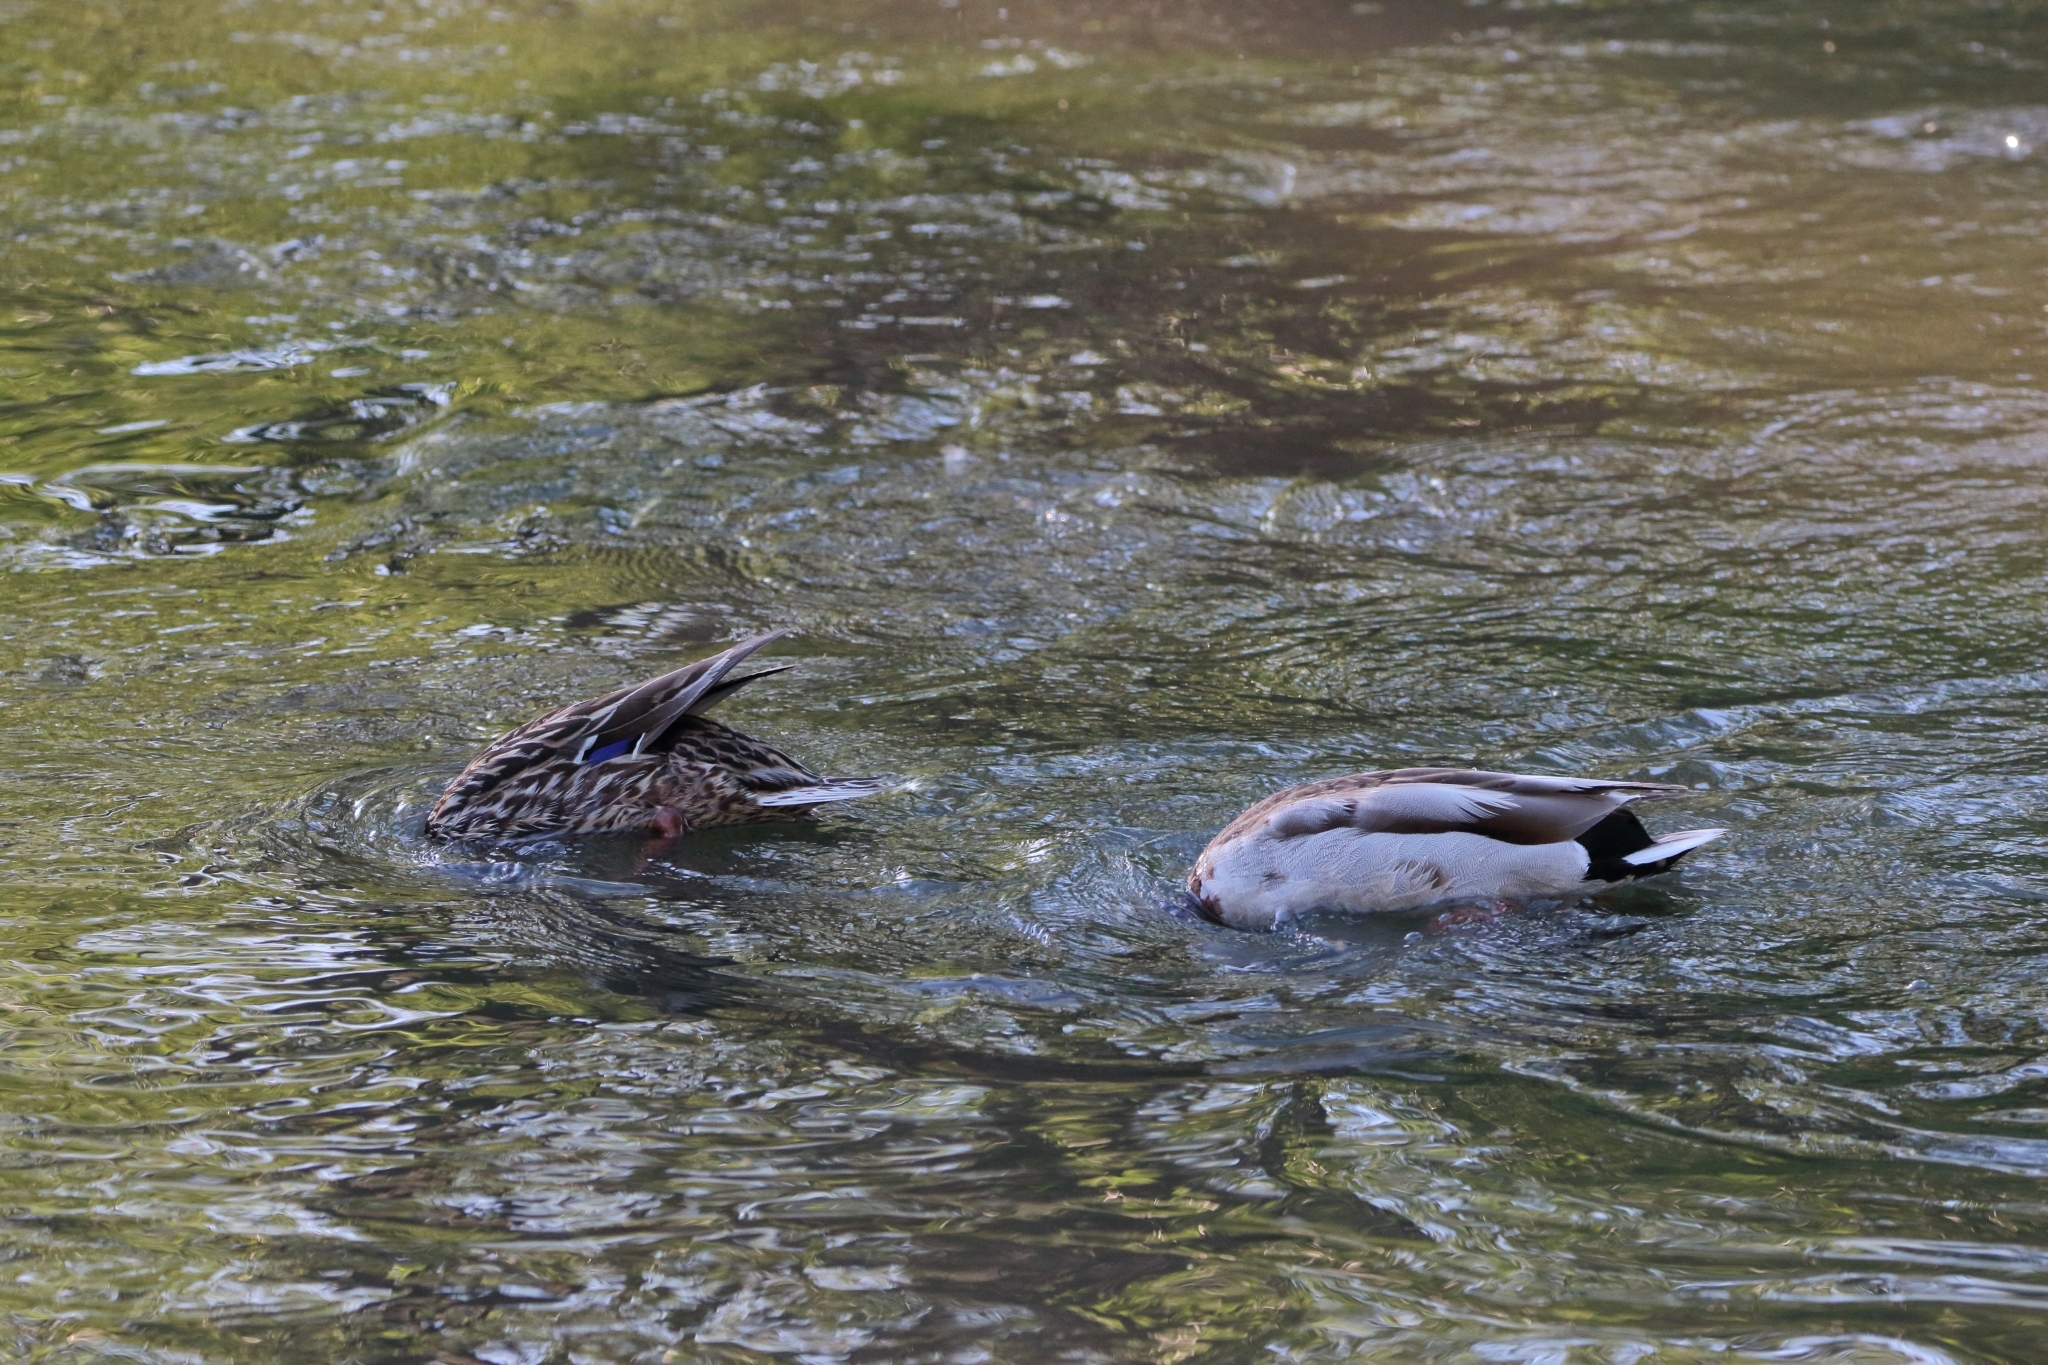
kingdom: Animalia
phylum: Chordata
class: Aves
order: Anseriformes
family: Anatidae
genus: Anas
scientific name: Anas platyrhynchos
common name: Mallard
